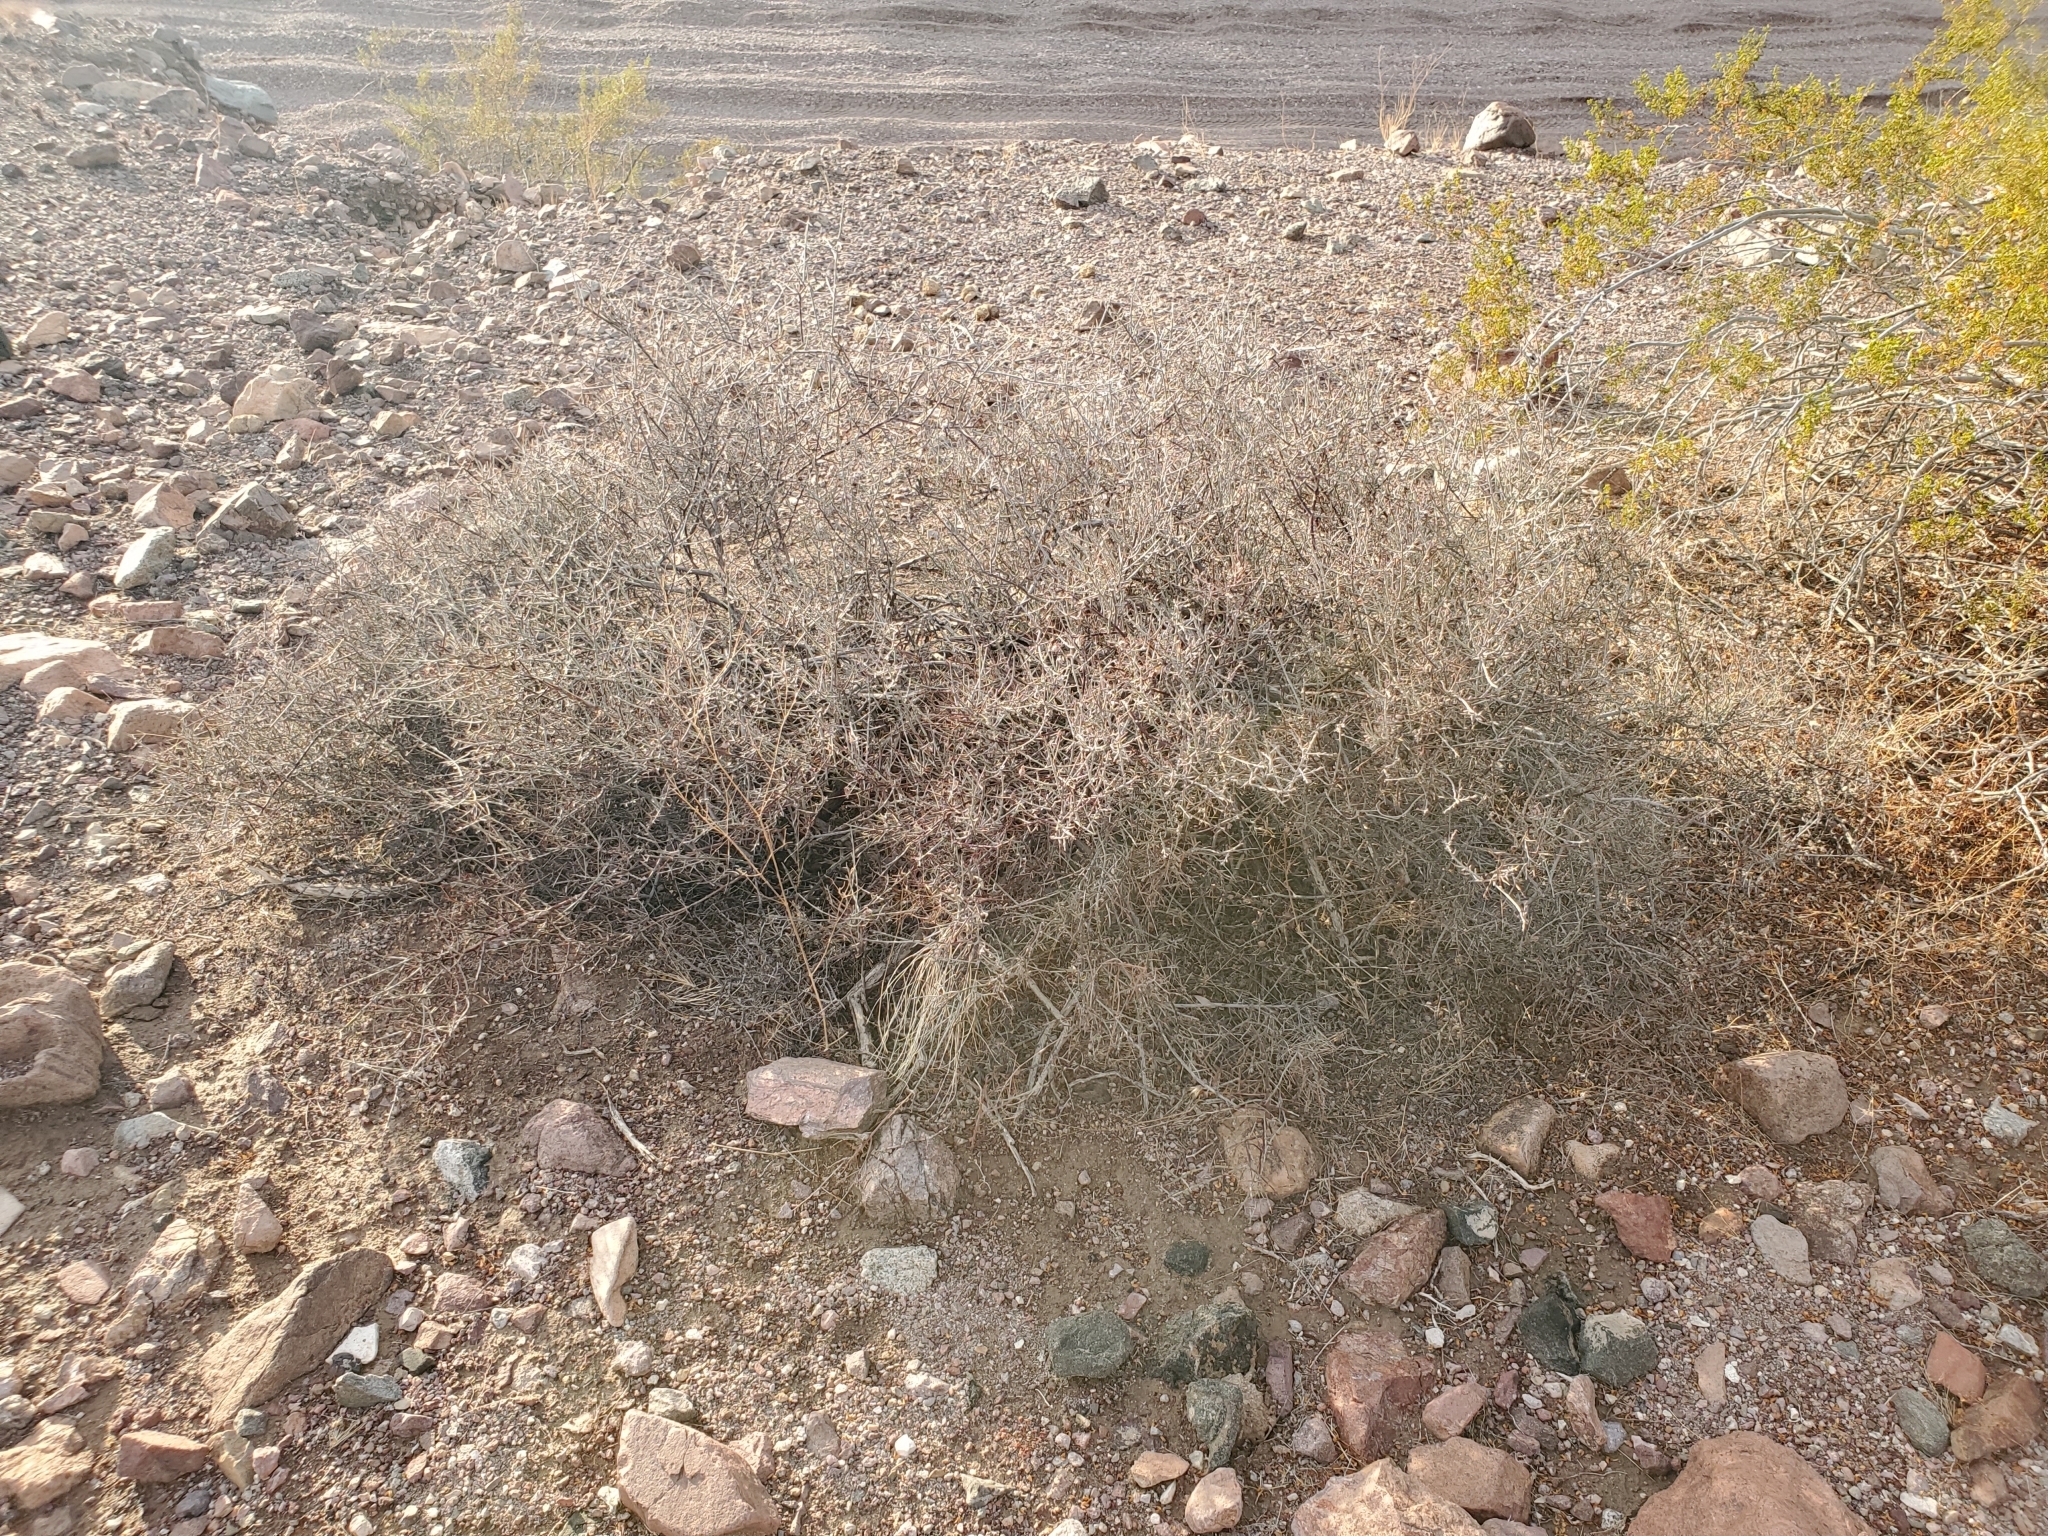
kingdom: Plantae
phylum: Tracheophyta
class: Magnoliopsida
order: Zygophyllales
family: Krameriaceae
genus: Krameria
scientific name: Krameria bicolor
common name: White ratany
